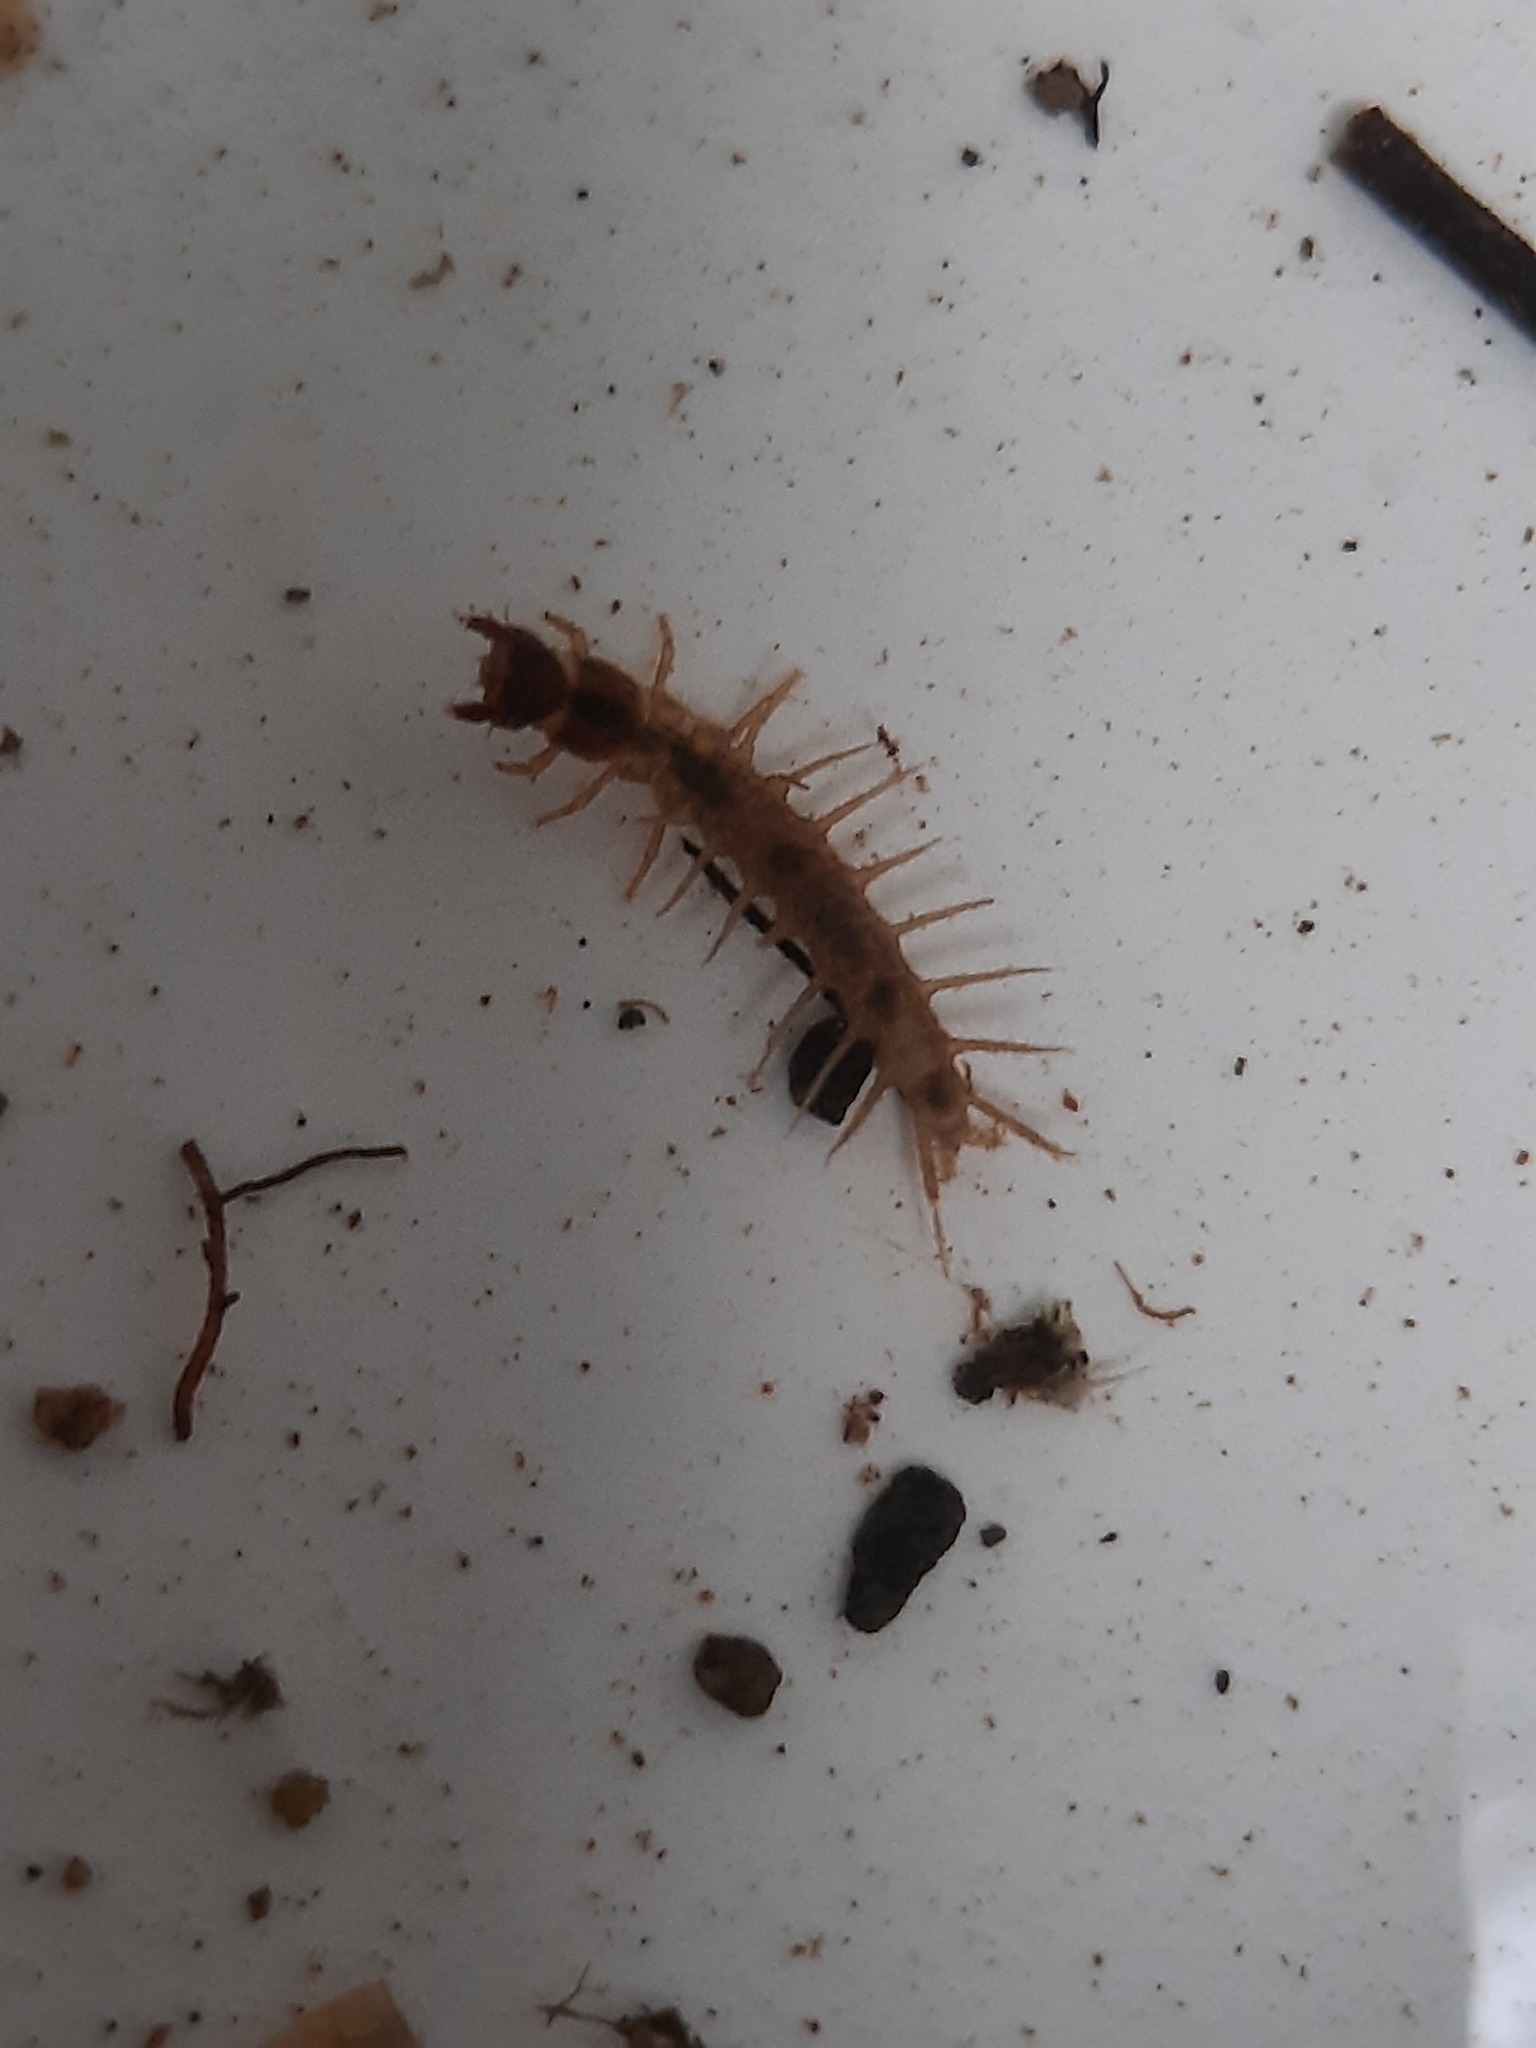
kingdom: Animalia
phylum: Arthropoda
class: Insecta
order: Megaloptera
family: Corydalidae
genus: Archichauliodes
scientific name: Archichauliodes diversus
